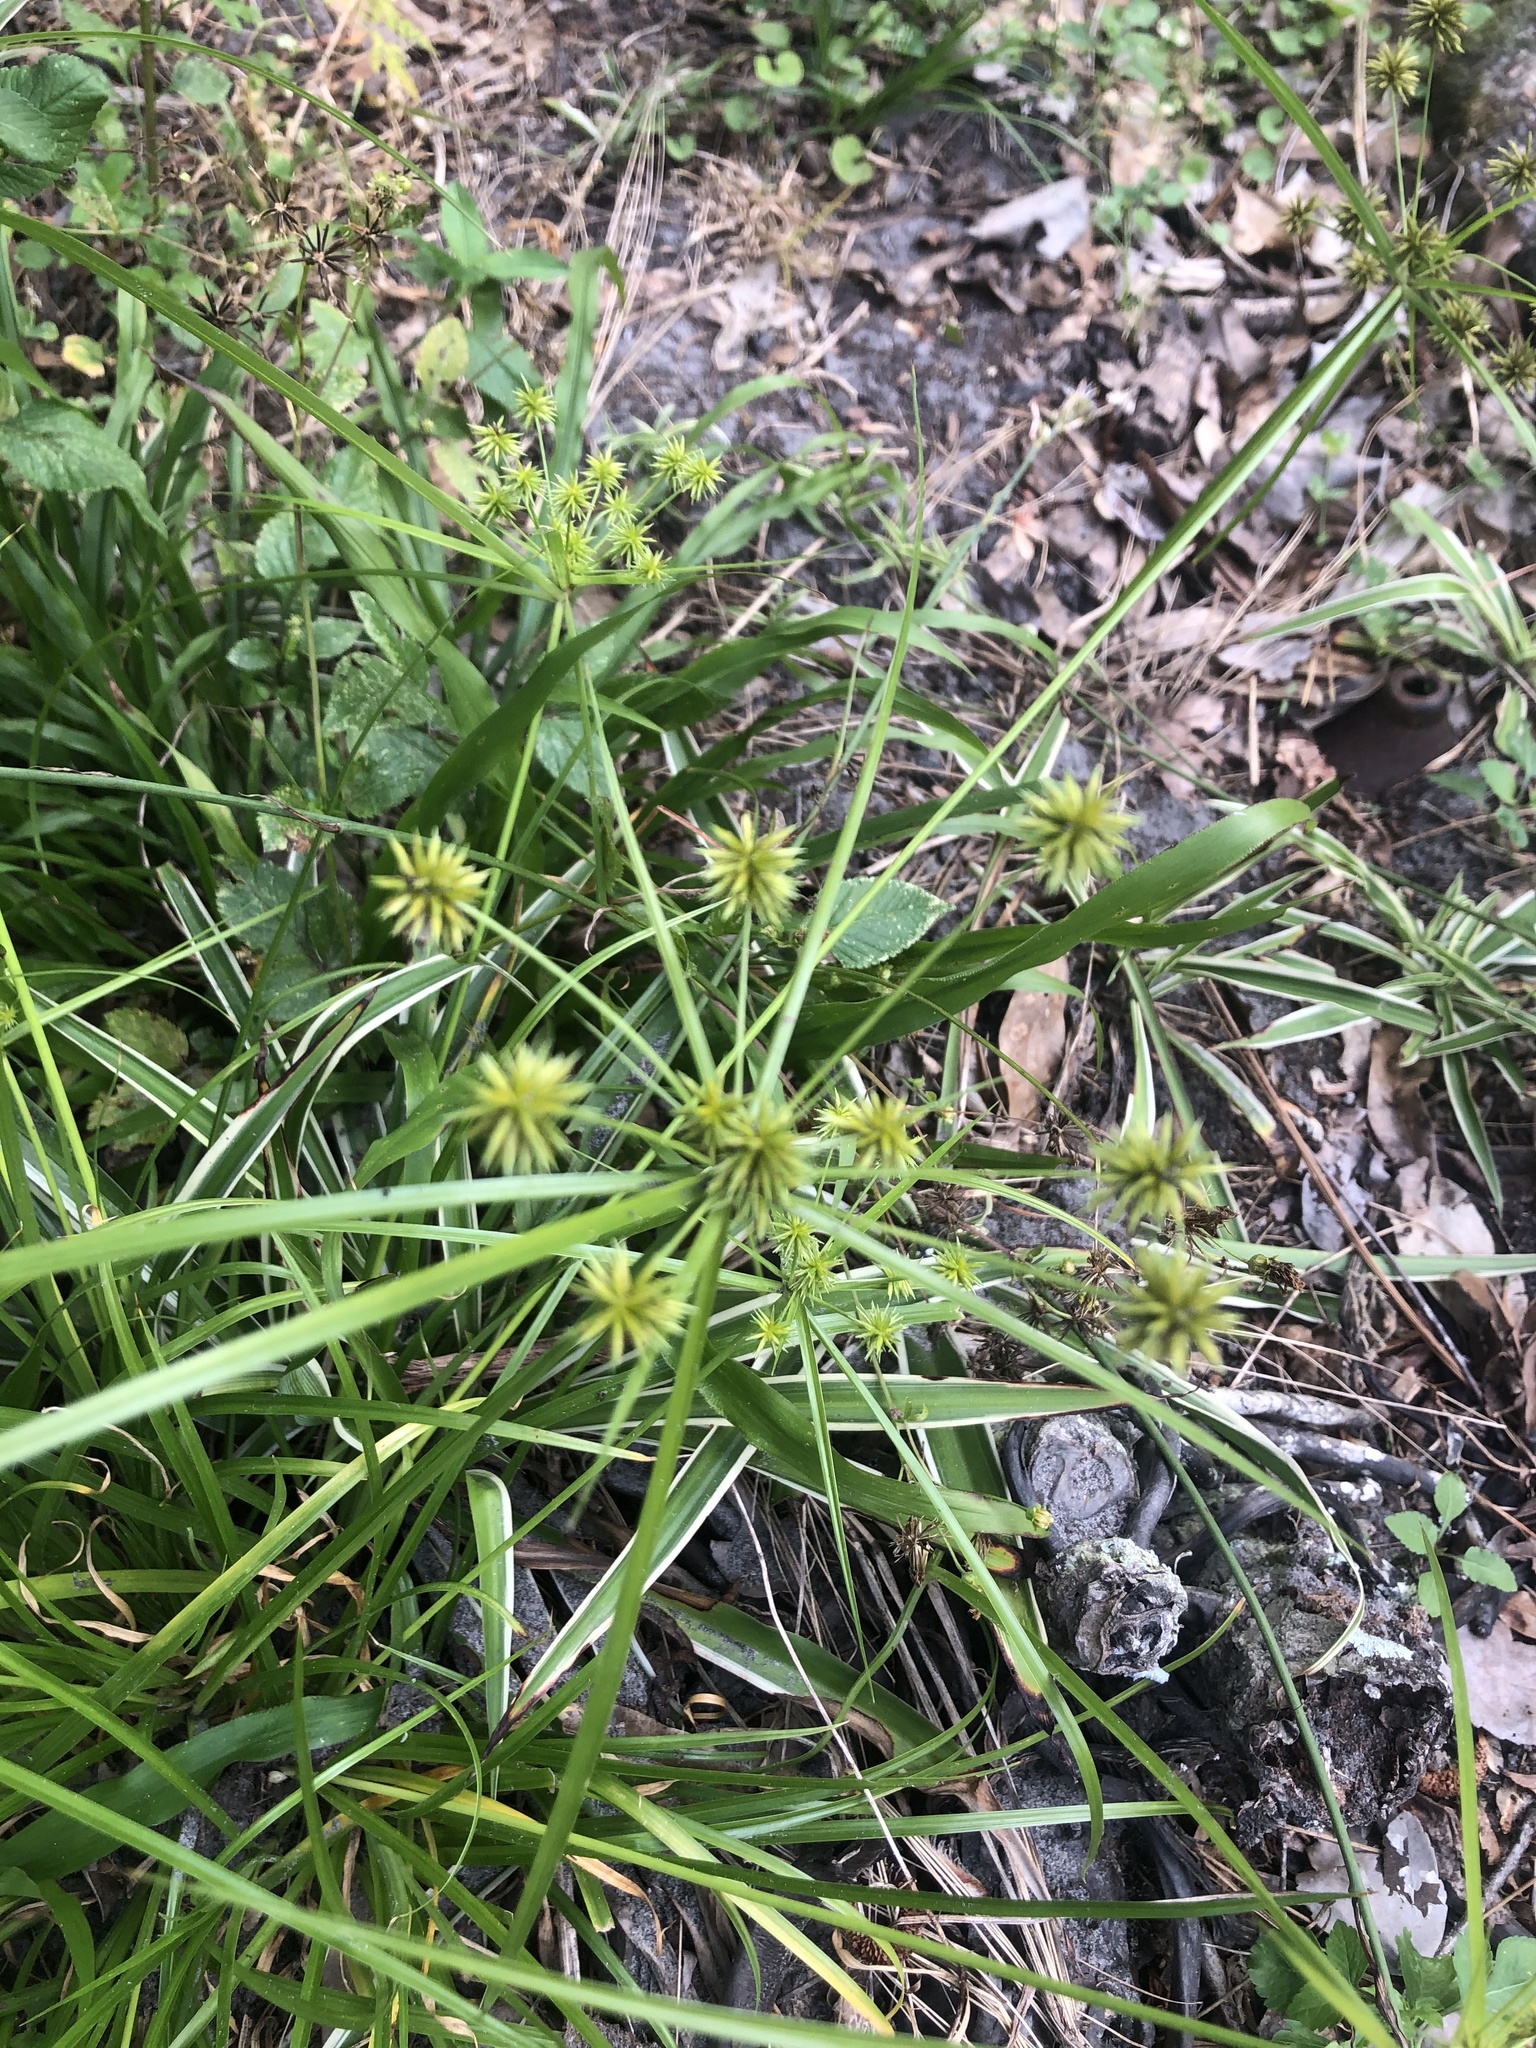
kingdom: Plantae
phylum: Tracheophyta
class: Liliopsida
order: Poales
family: Cyperaceae
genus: Cyperus
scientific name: Cyperus croceus
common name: Baldwin's flatsedge
